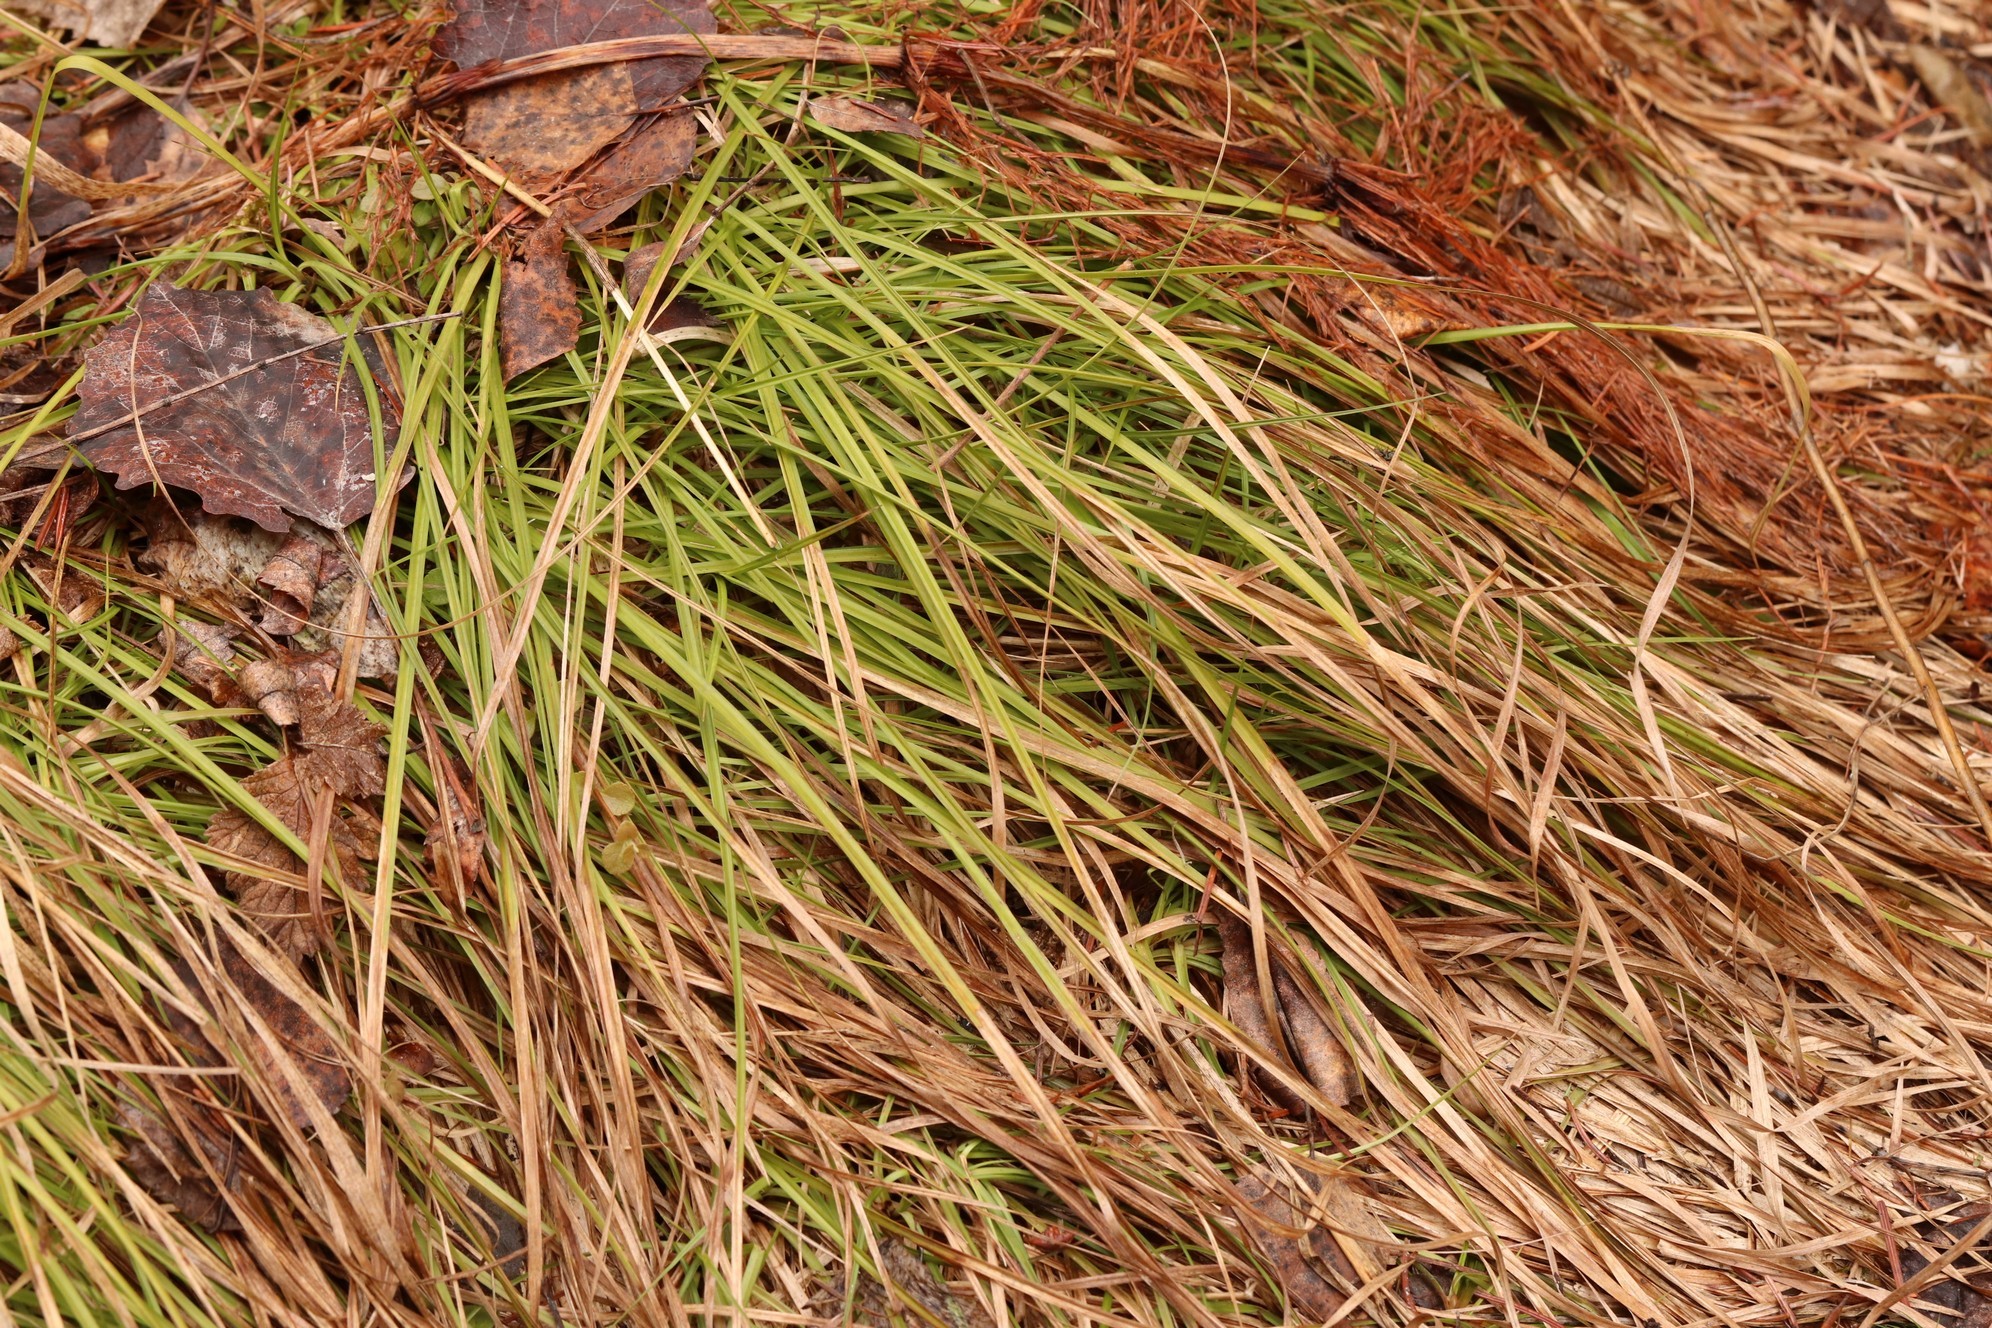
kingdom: Plantae
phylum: Tracheophyta
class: Liliopsida
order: Poales
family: Cyperaceae
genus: Carex
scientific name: Carex pediformis
